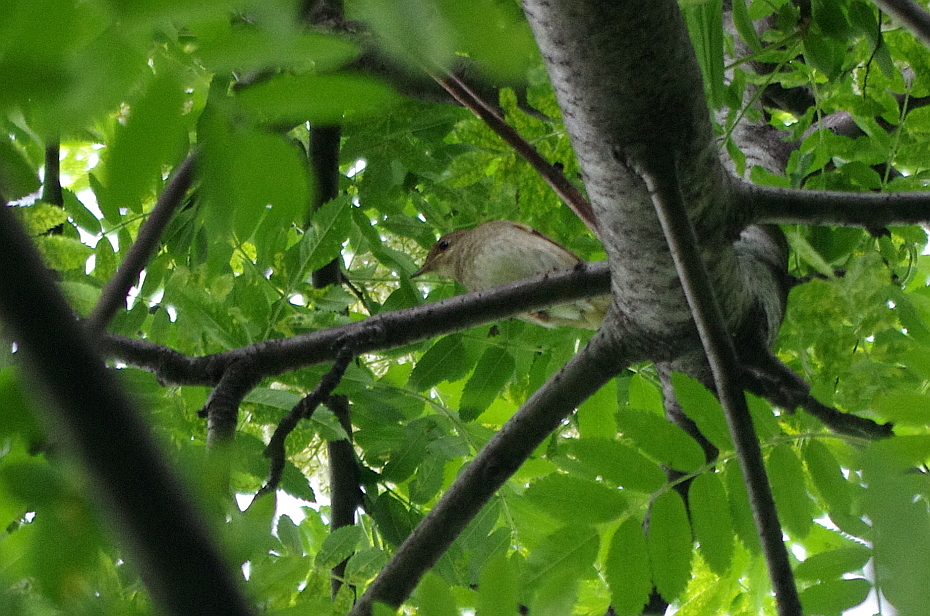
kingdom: Animalia
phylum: Chordata
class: Aves
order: Passeriformes
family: Muscicapidae
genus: Luscinia
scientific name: Luscinia luscinia
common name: Thrush nightingale
